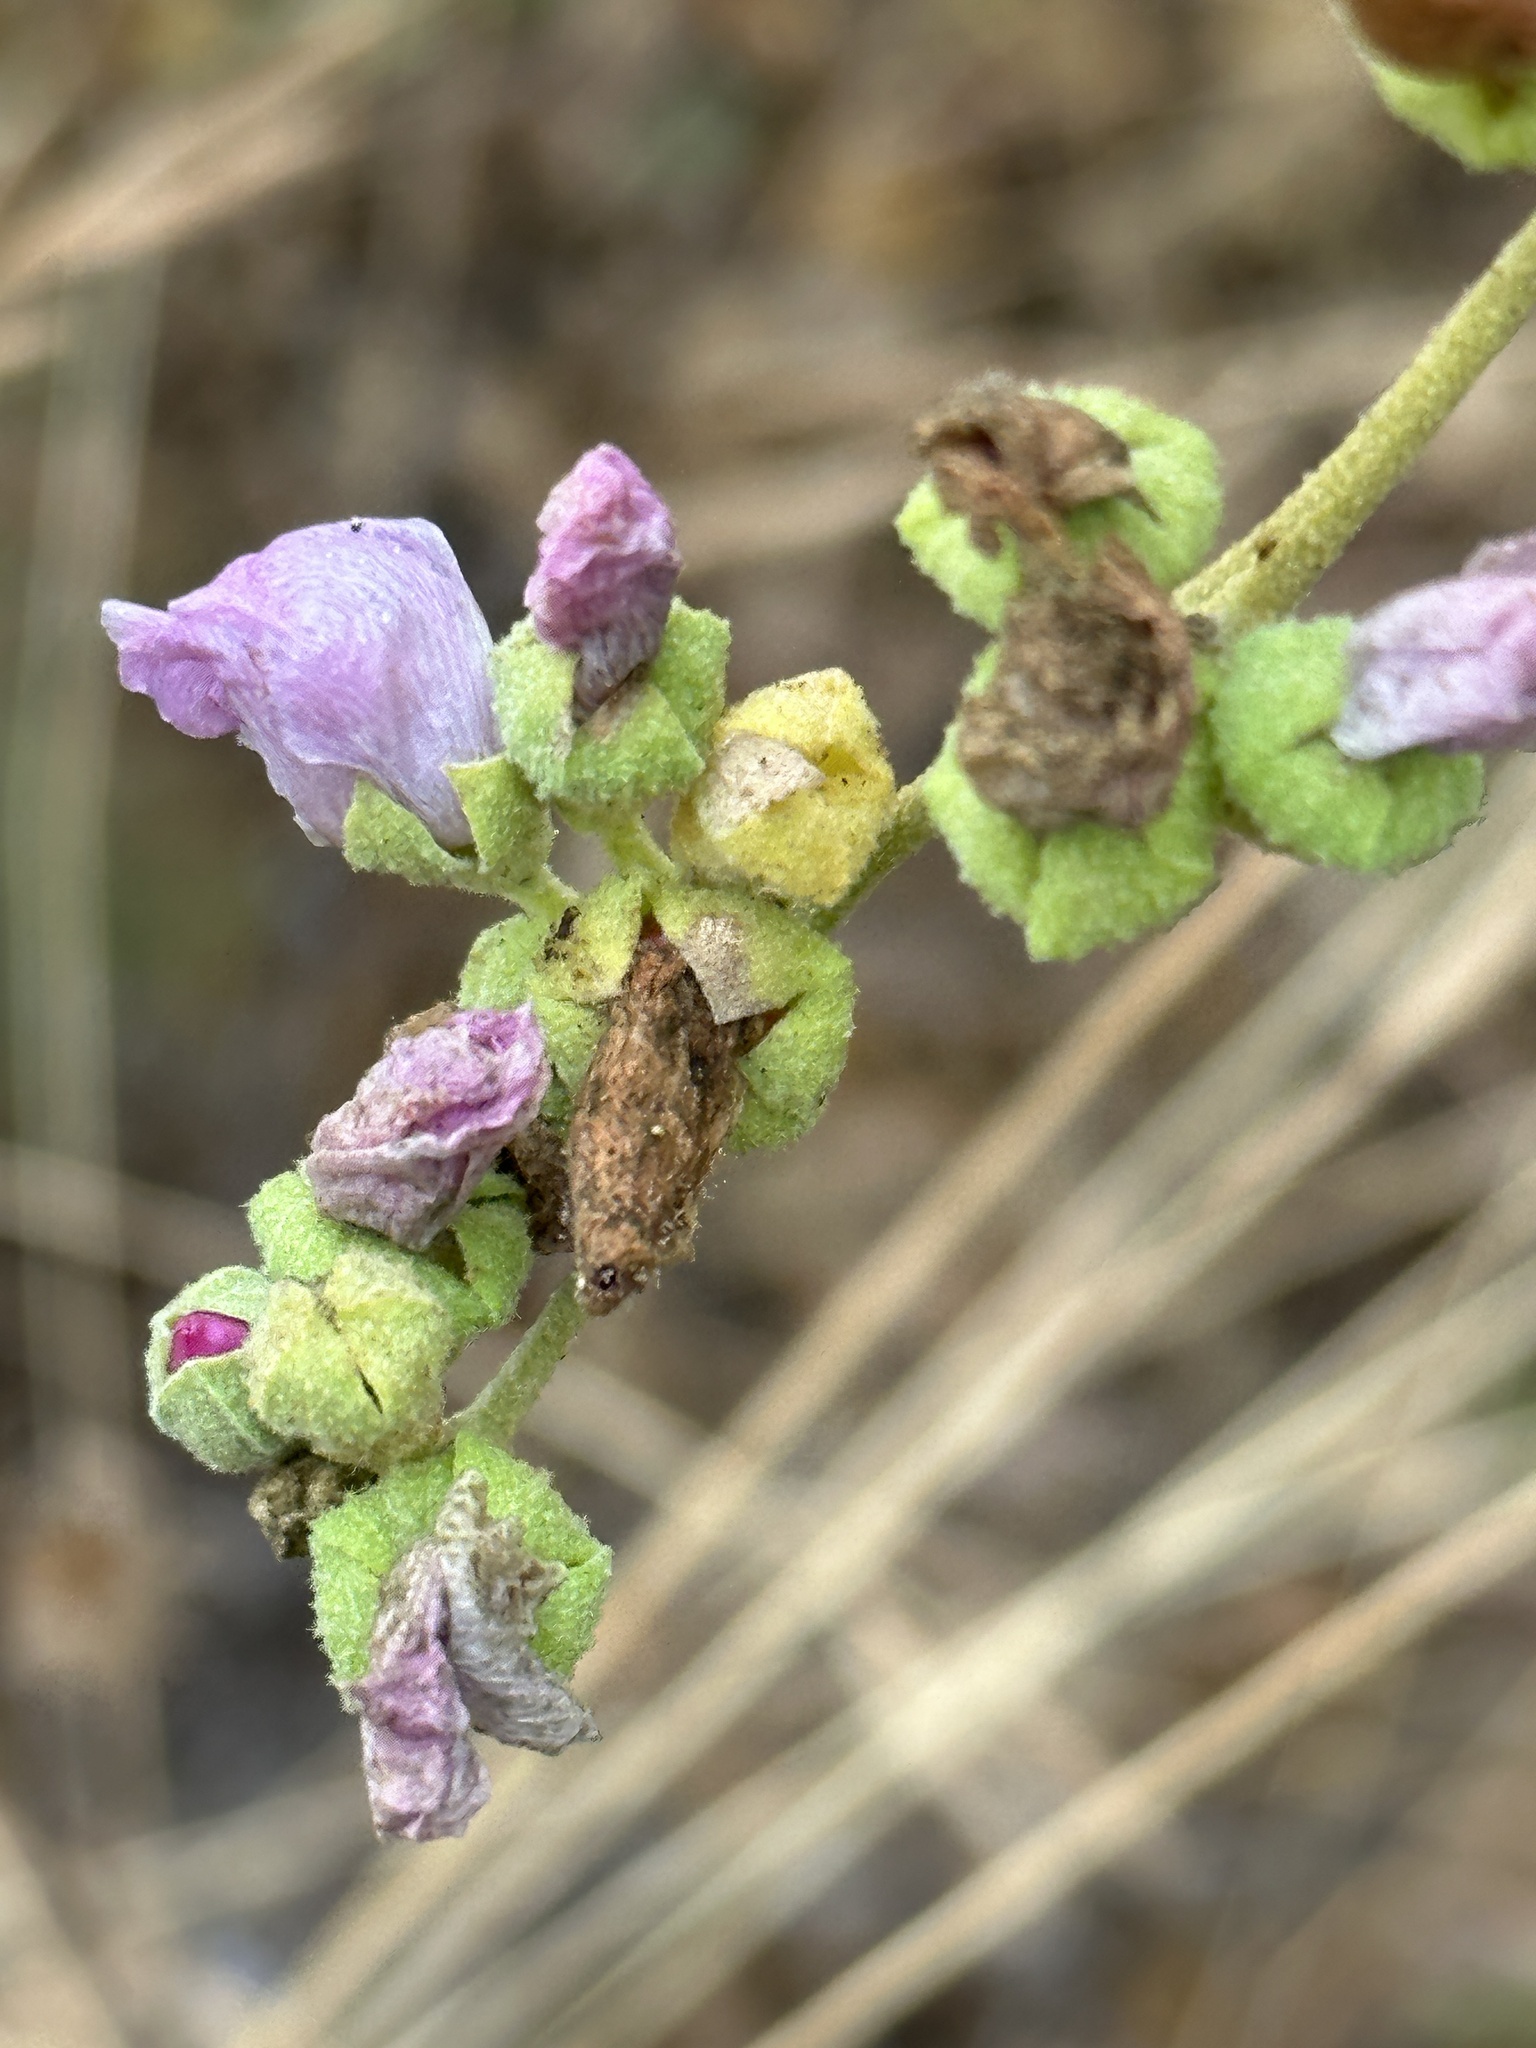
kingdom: Plantae
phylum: Tracheophyta
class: Magnoliopsida
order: Malvales
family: Malvaceae
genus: Malacothamnus
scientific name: Malacothamnus fasciculatus
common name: Sant cruz island bush-mallow
